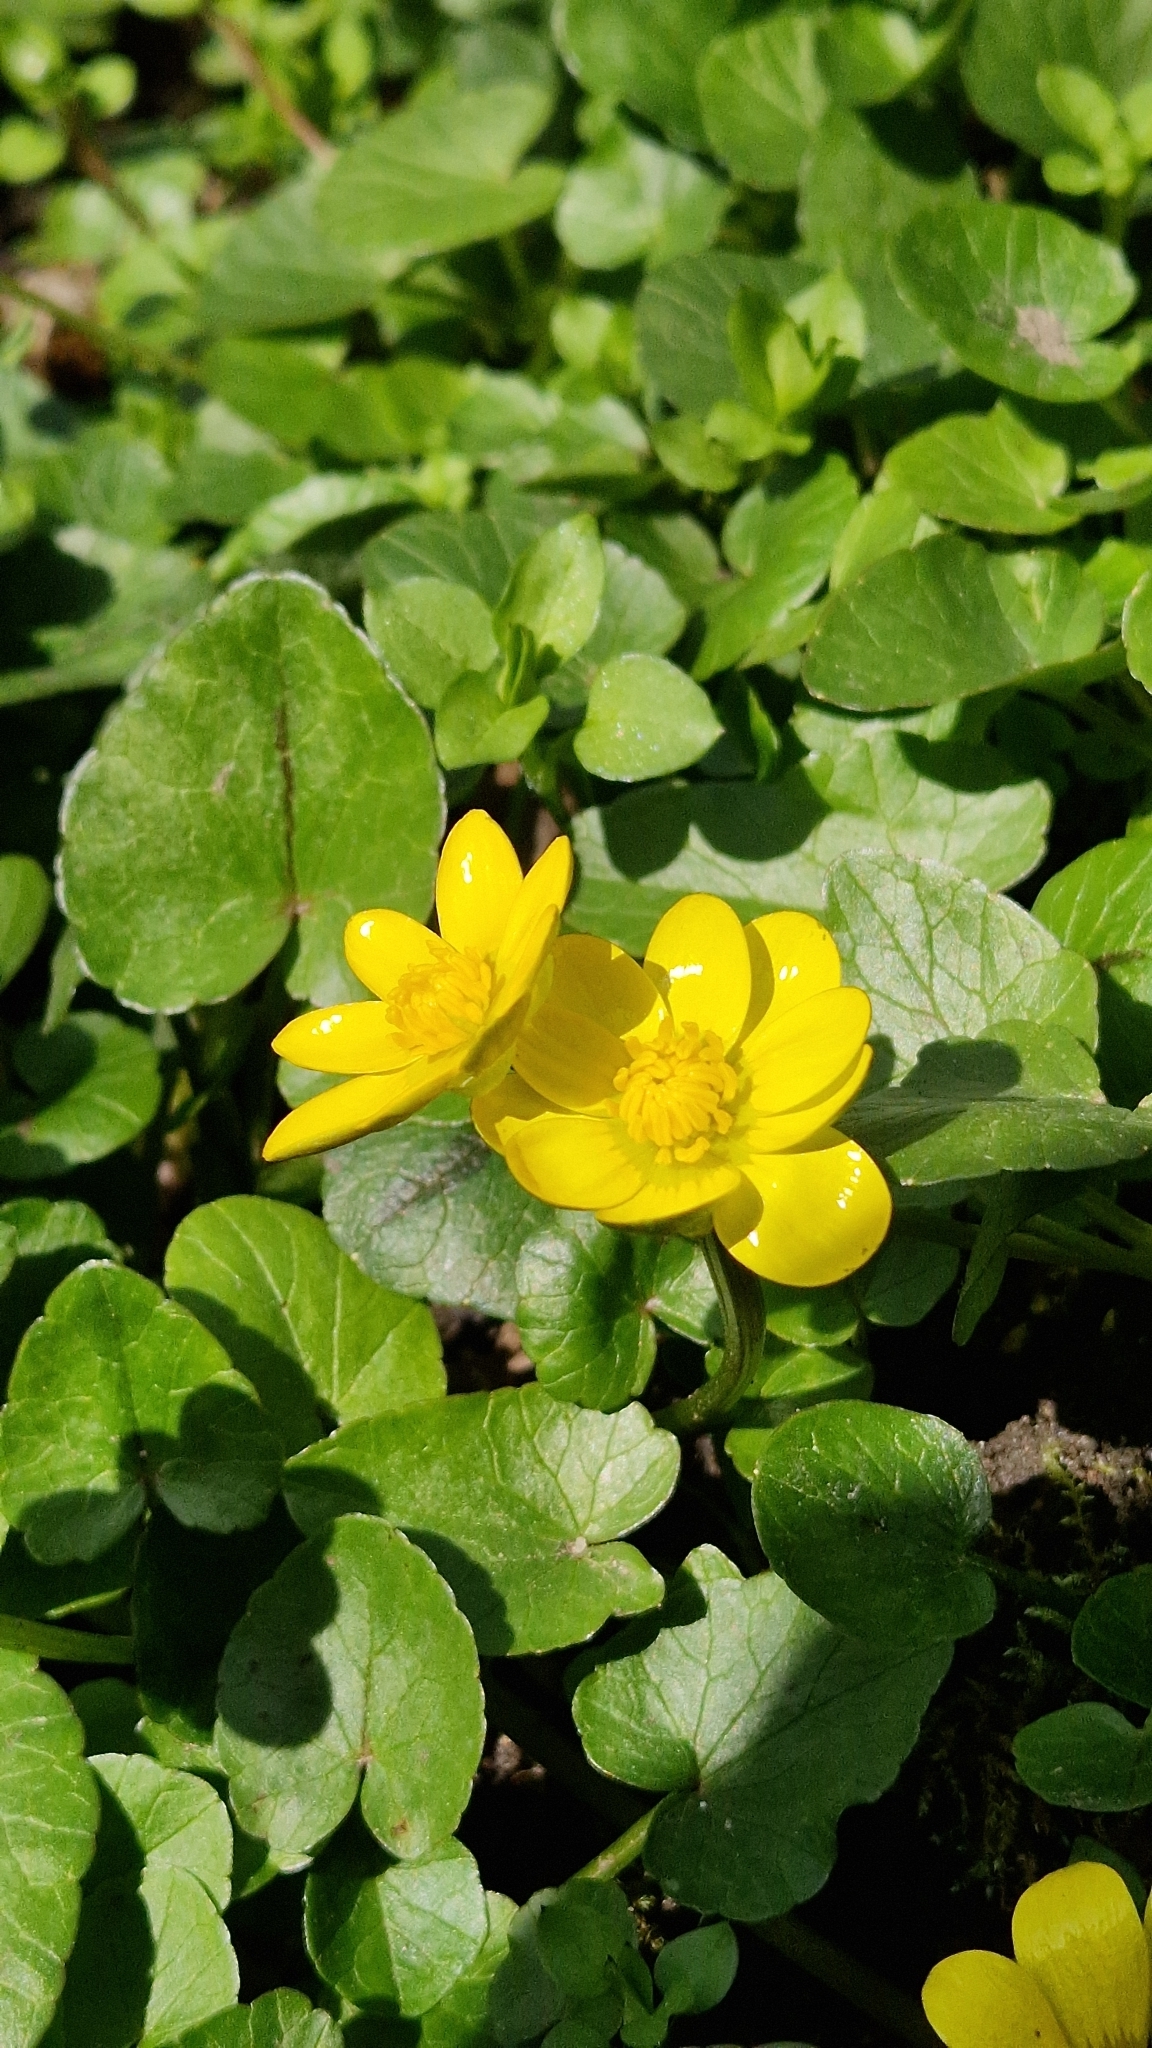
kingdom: Plantae
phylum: Tracheophyta
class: Magnoliopsida
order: Ranunculales
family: Ranunculaceae
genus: Ficaria
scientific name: Ficaria verna
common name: Lesser celandine
